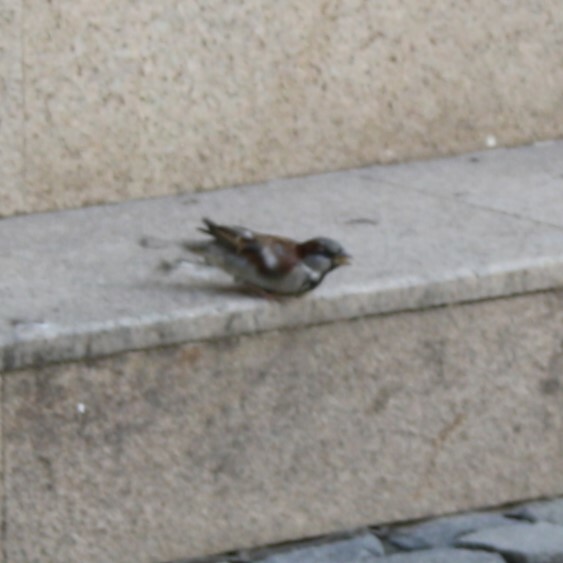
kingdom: Animalia
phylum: Chordata
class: Aves
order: Passeriformes
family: Passeridae
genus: Passer
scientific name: Passer domesticus
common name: House sparrow
